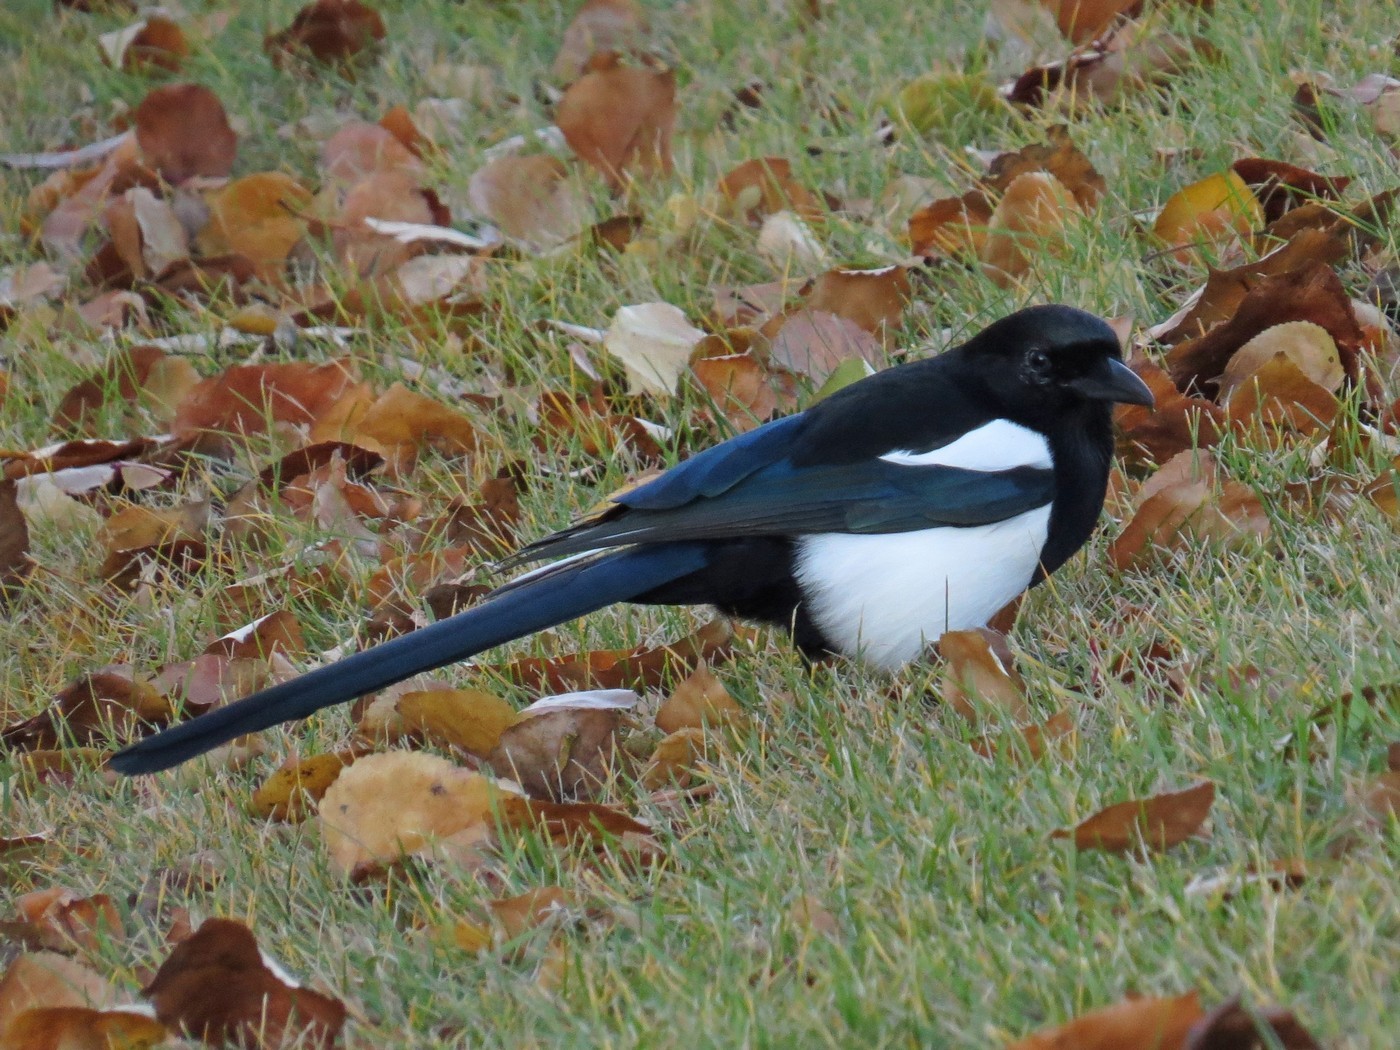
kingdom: Animalia
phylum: Chordata
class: Aves
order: Passeriformes
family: Corvidae
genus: Pica
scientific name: Pica hudsonia
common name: Black-billed magpie
